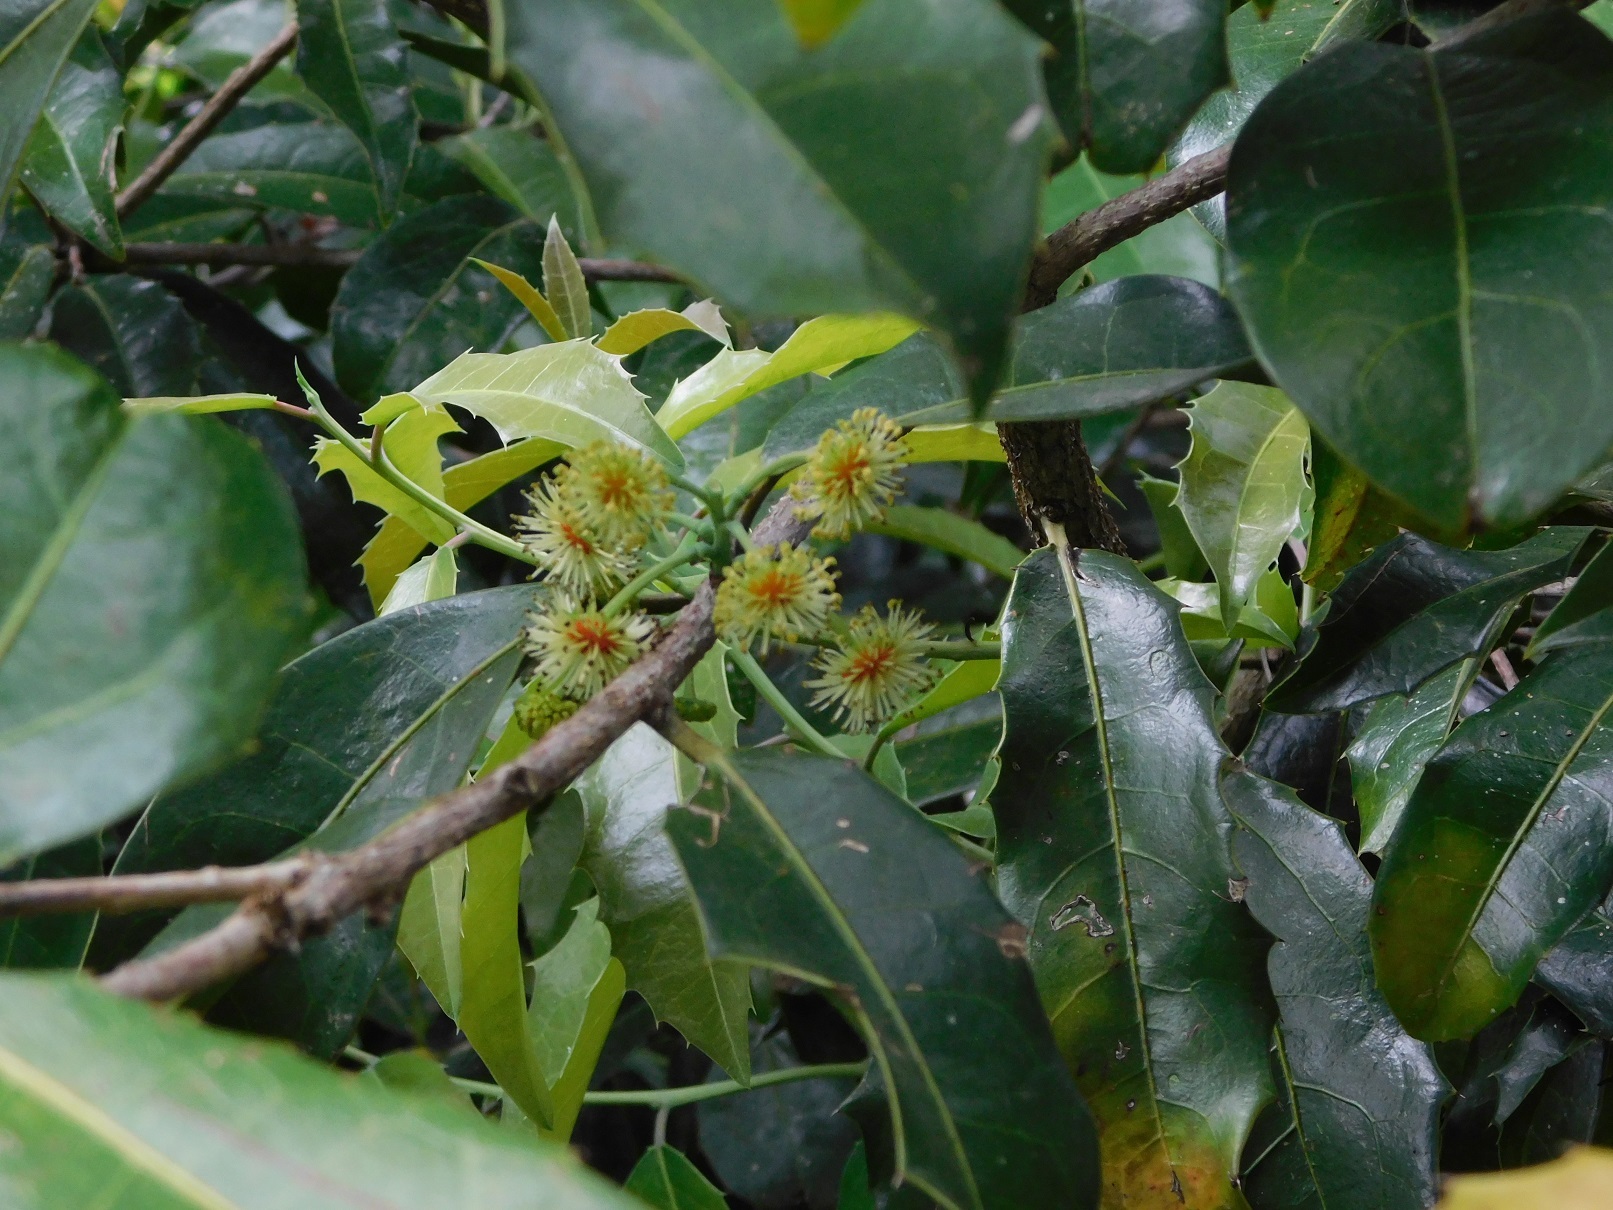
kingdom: Plantae
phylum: Tracheophyta
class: Magnoliopsida
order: Malpighiales
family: Salicaceae
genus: Olmediella
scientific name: Olmediella betschleriana
